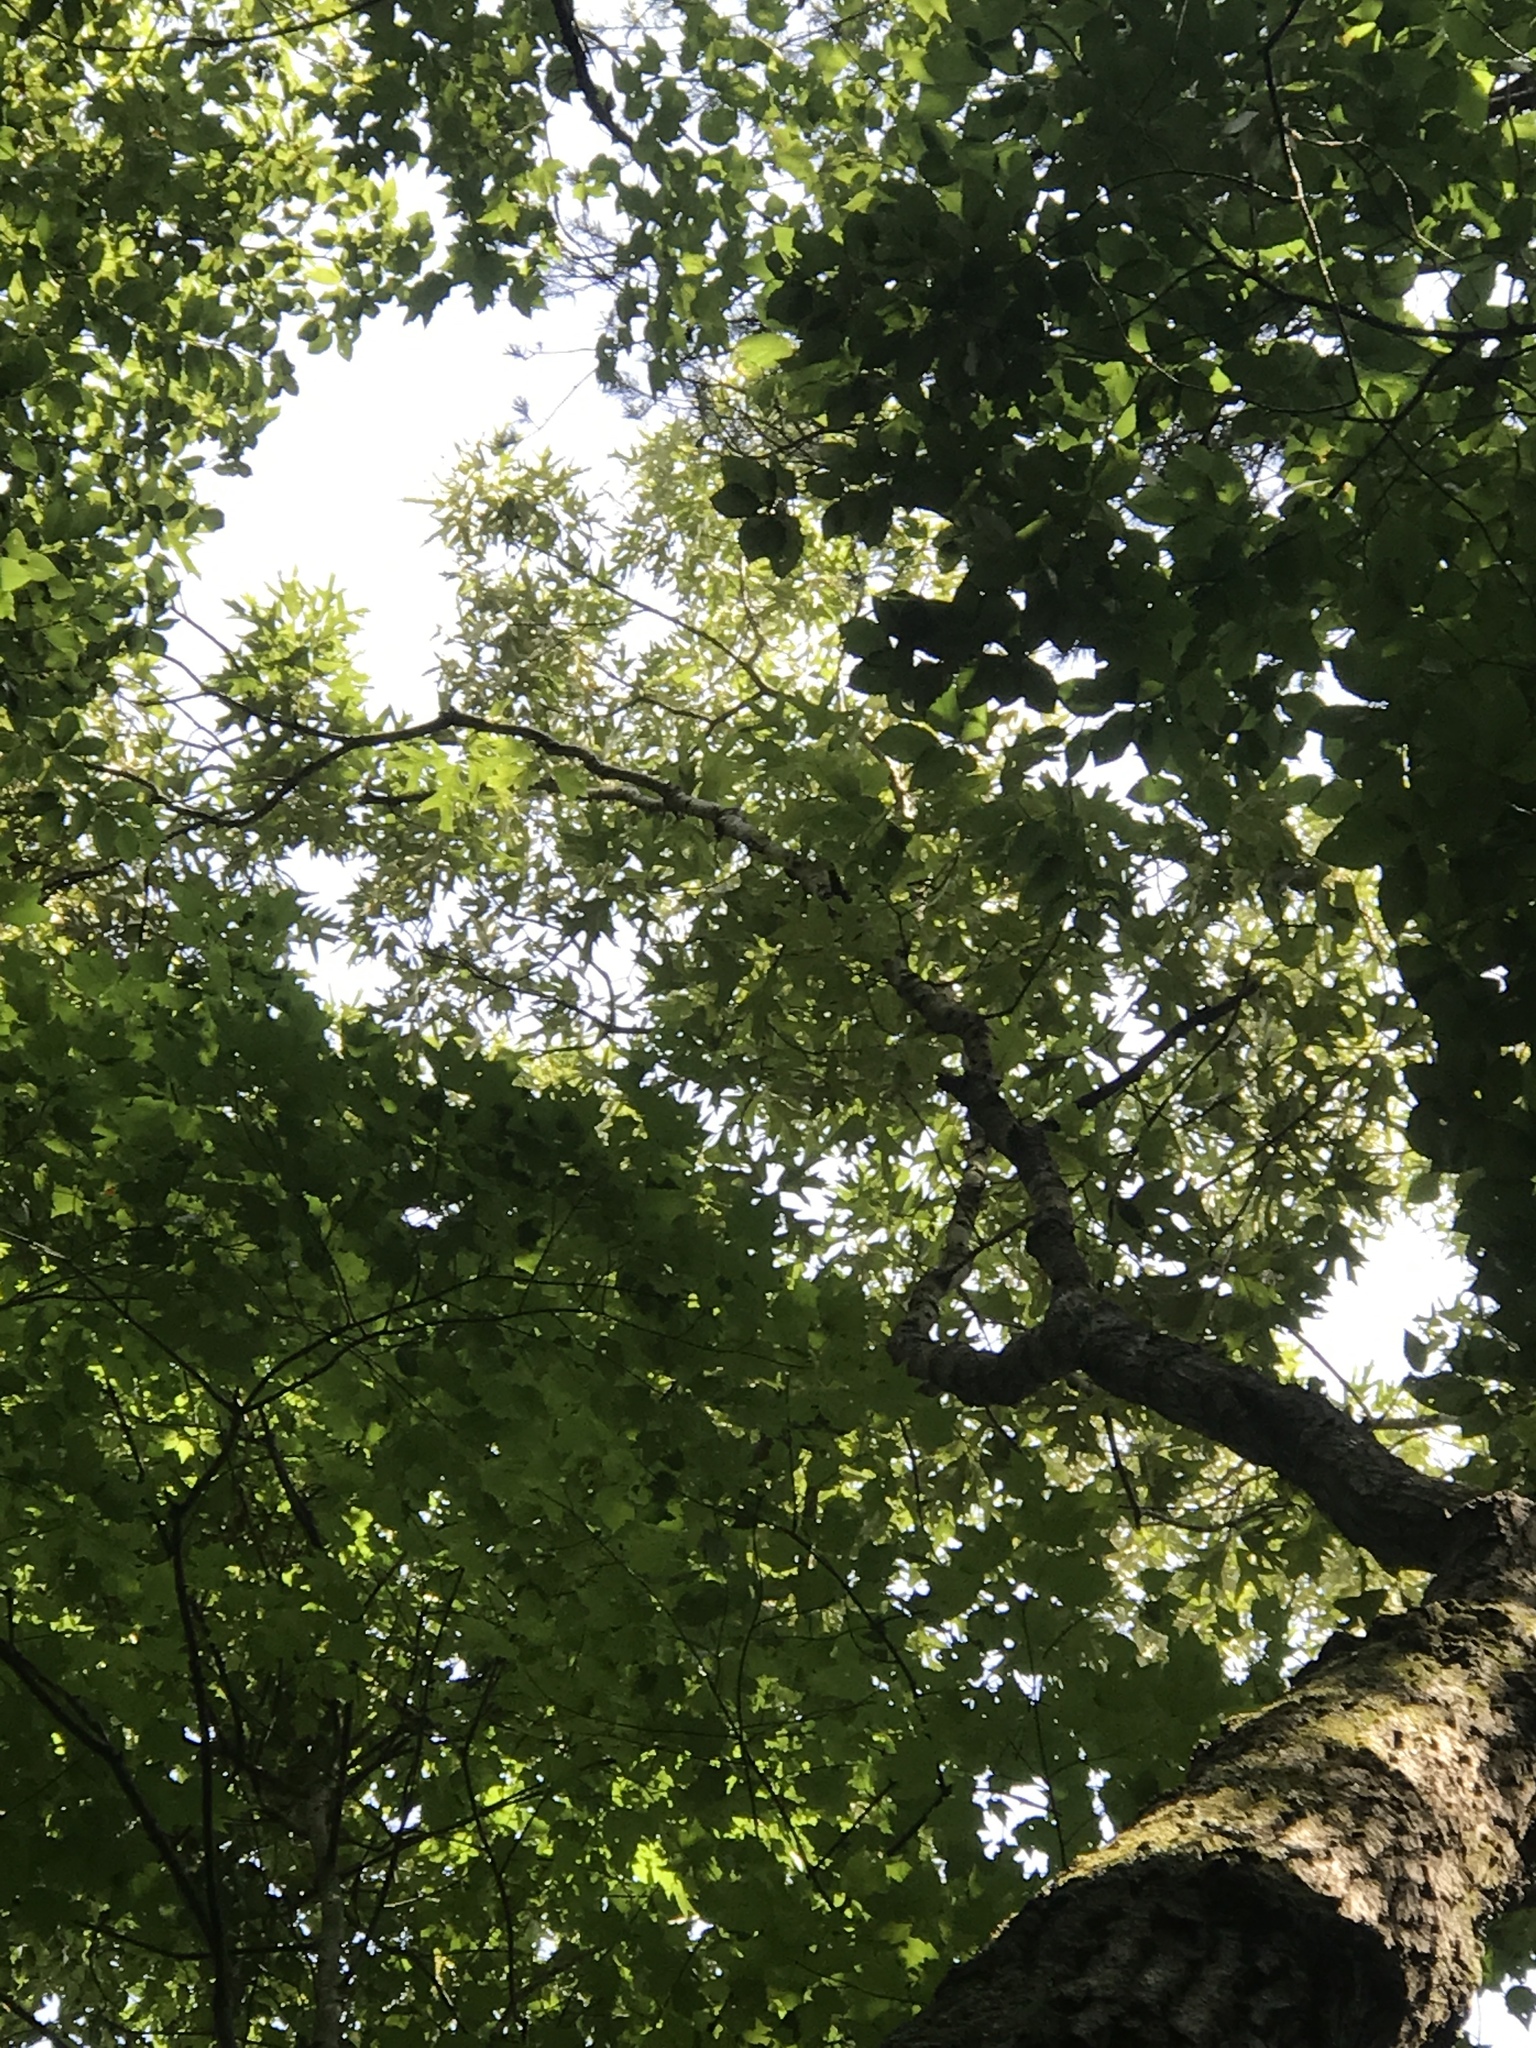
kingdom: Plantae
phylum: Tracheophyta
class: Magnoliopsida
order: Fagales
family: Fagaceae
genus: Quercus
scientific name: Quercus falcata
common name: Southern red oak
